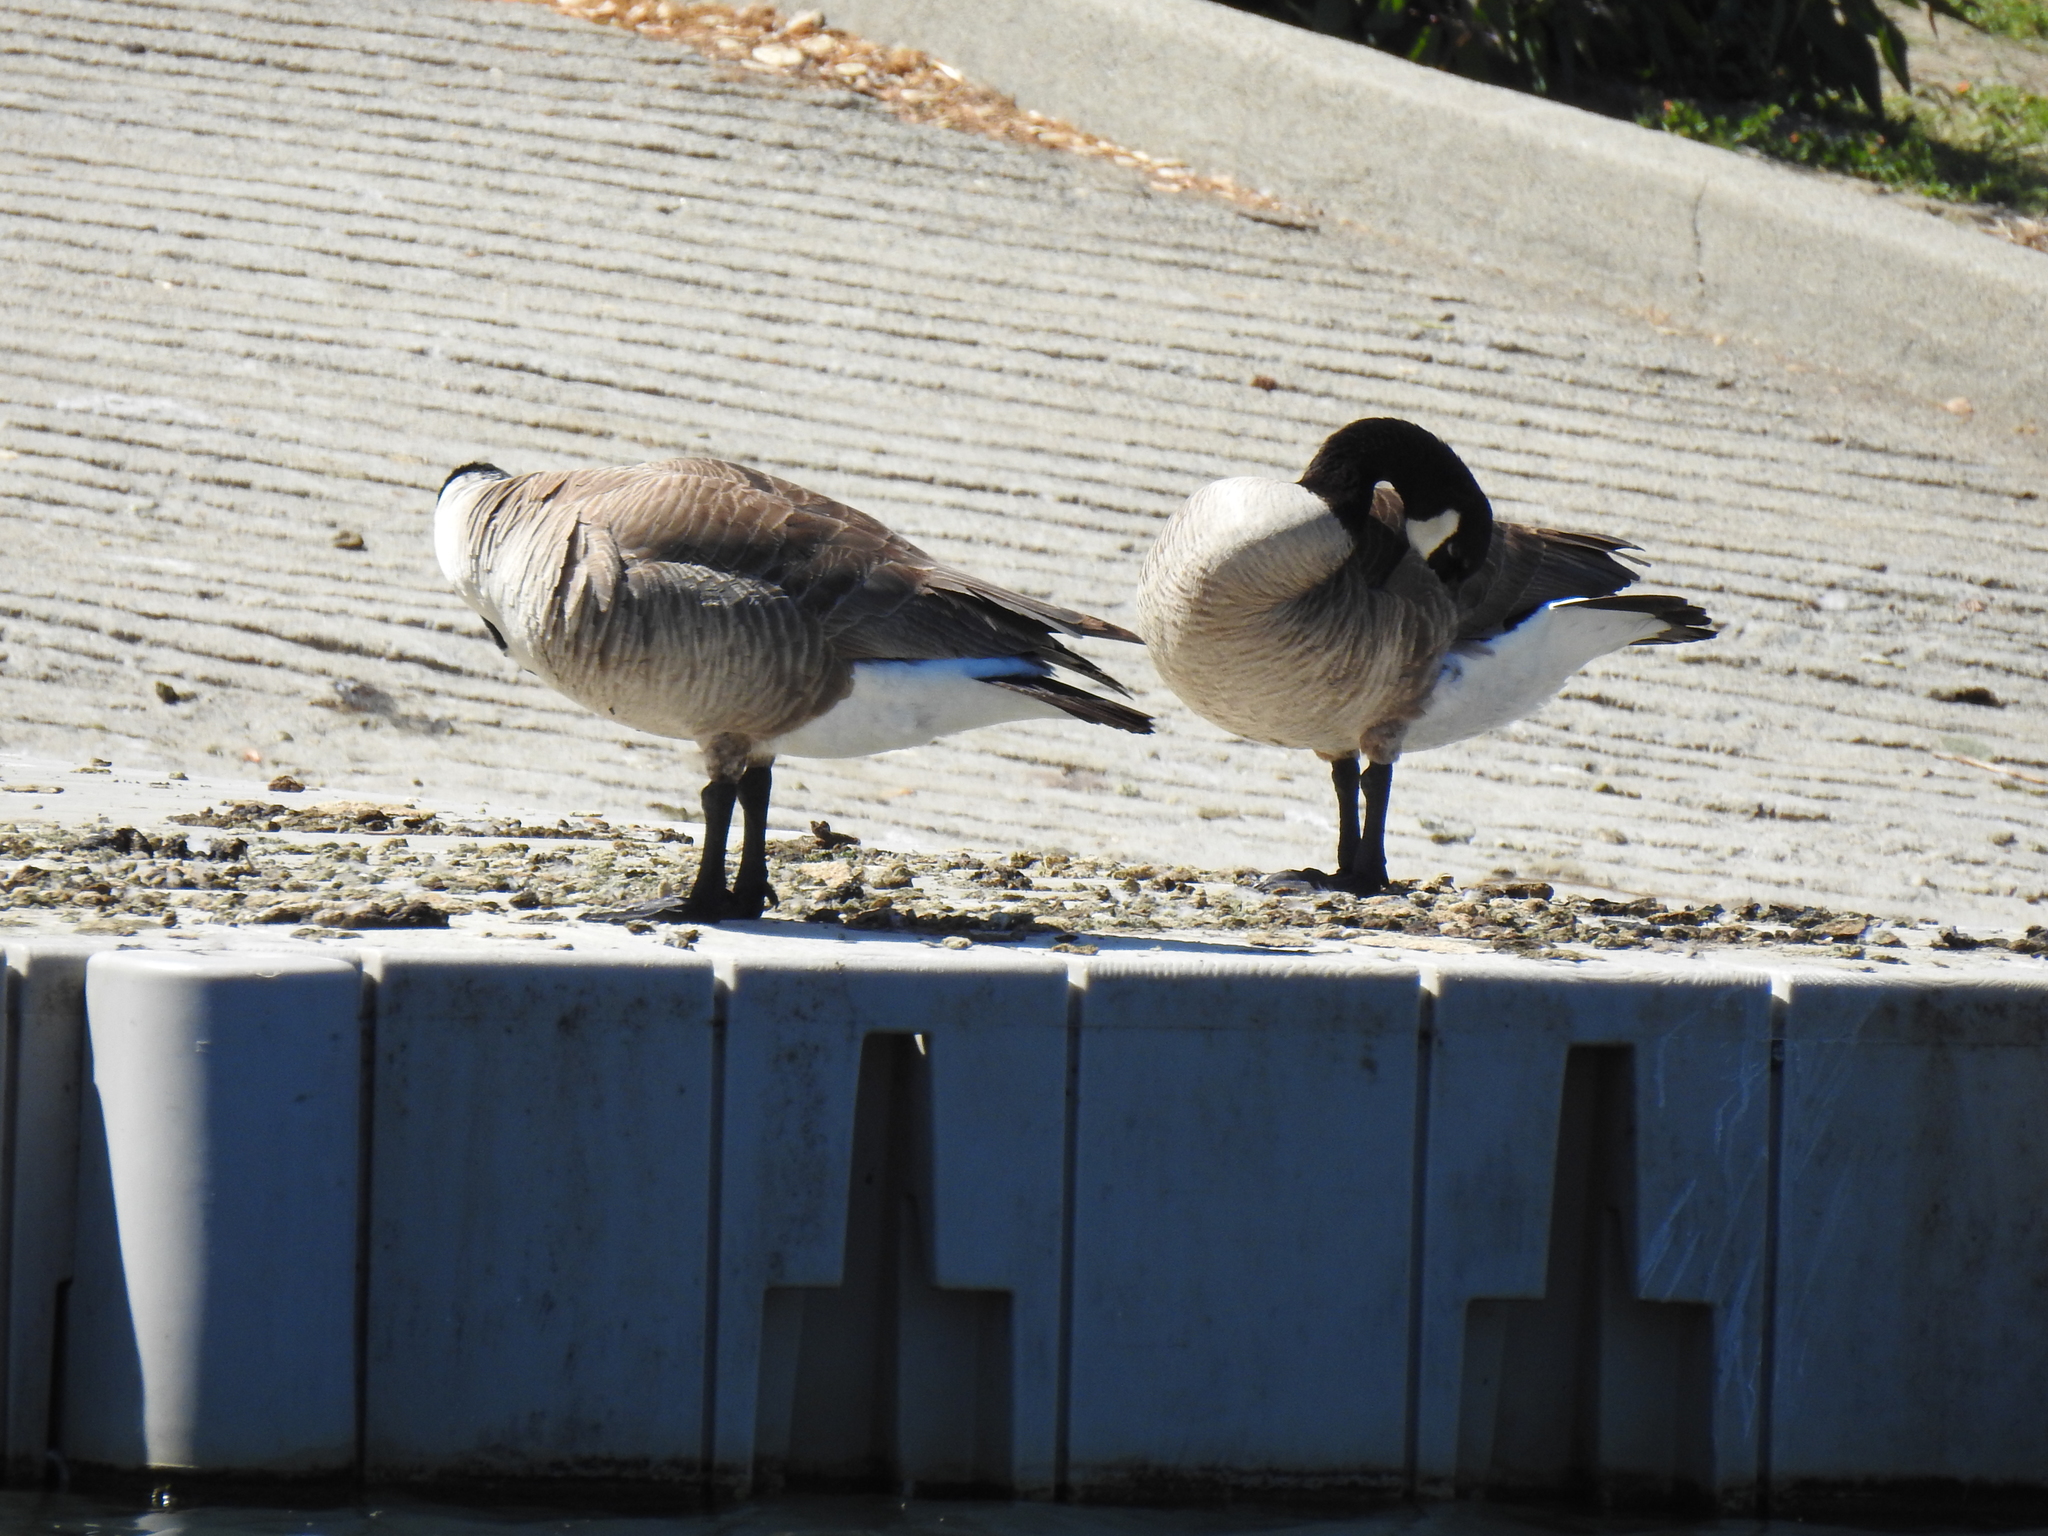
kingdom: Animalia
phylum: Chordata
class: Aves
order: Anseriformes
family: Anatidae
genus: Branta
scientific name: Branta canadensis
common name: Canada goose
